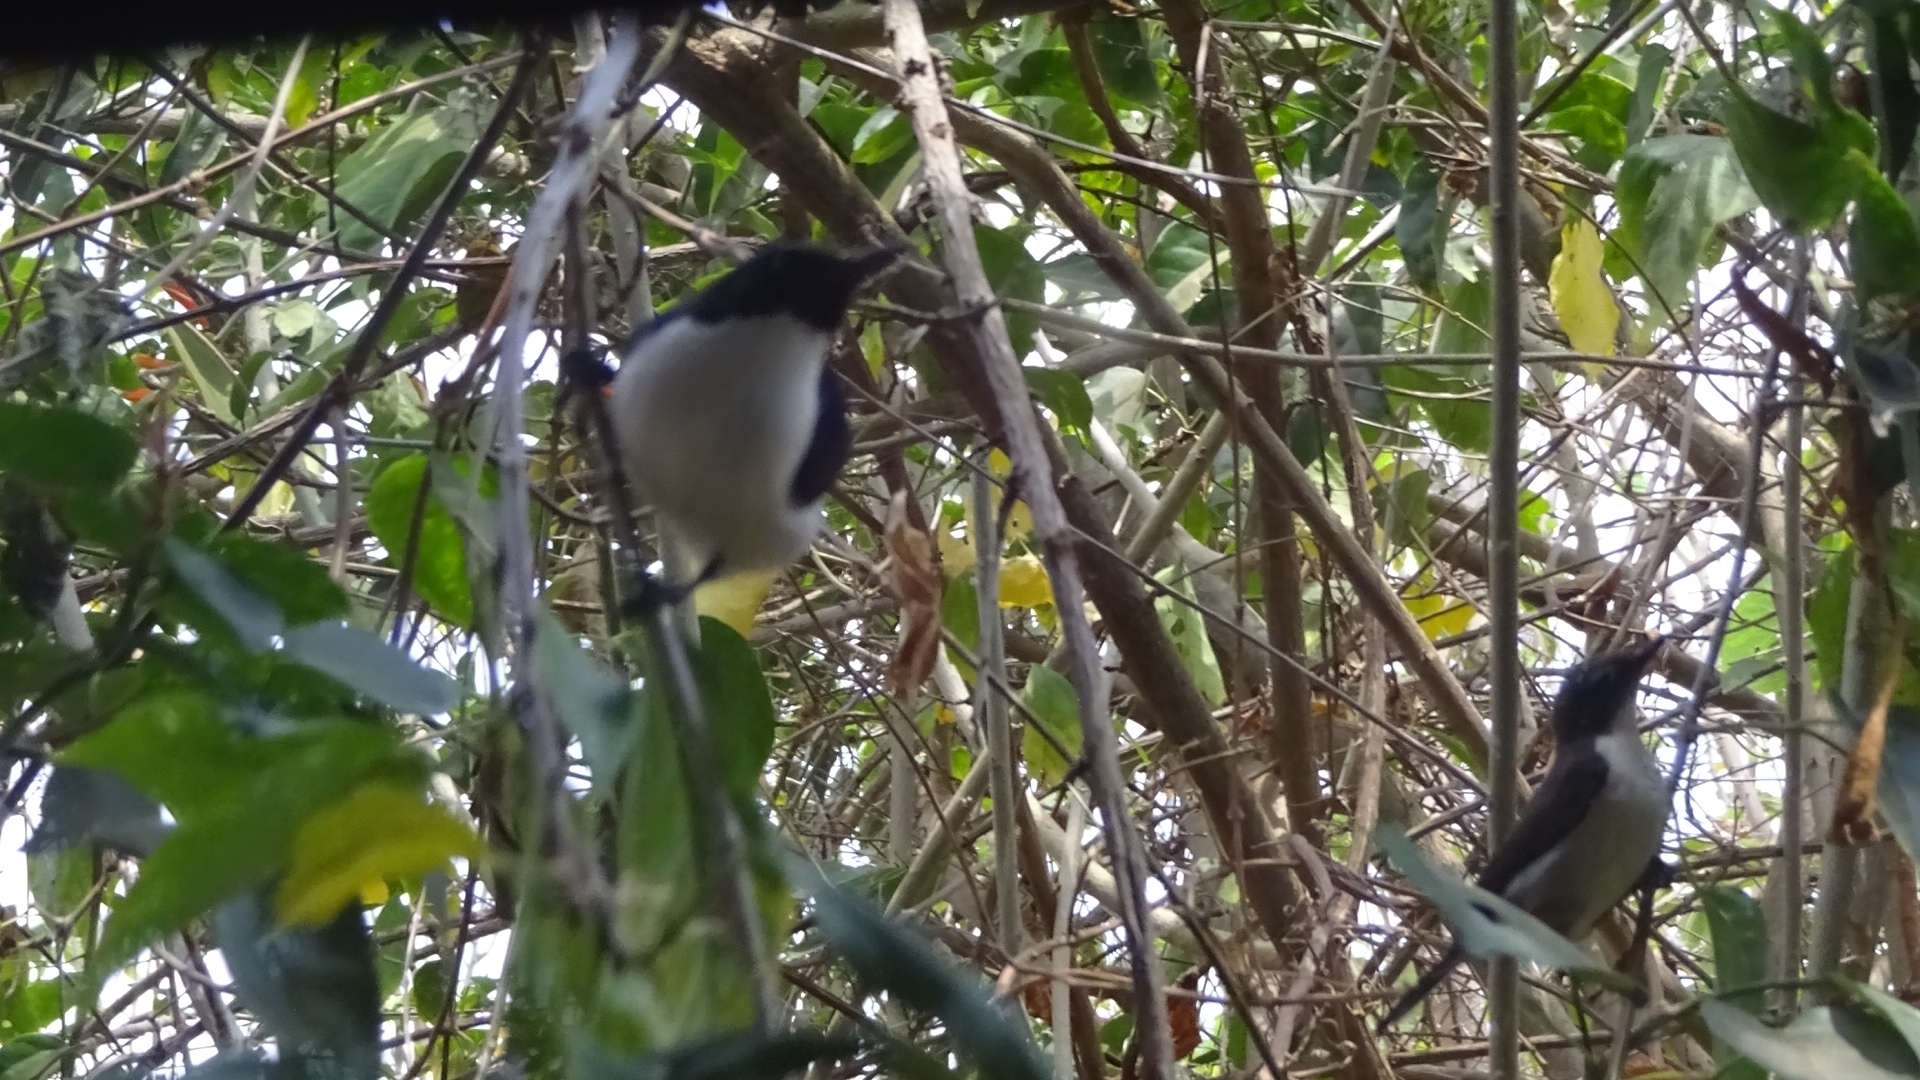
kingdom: Animalia
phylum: Chordata
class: Aves
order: Passeriformes
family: Nectariniidae
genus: Anthreptes
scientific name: Anthreptes orientalis
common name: Eastern violet-backed sunbird
